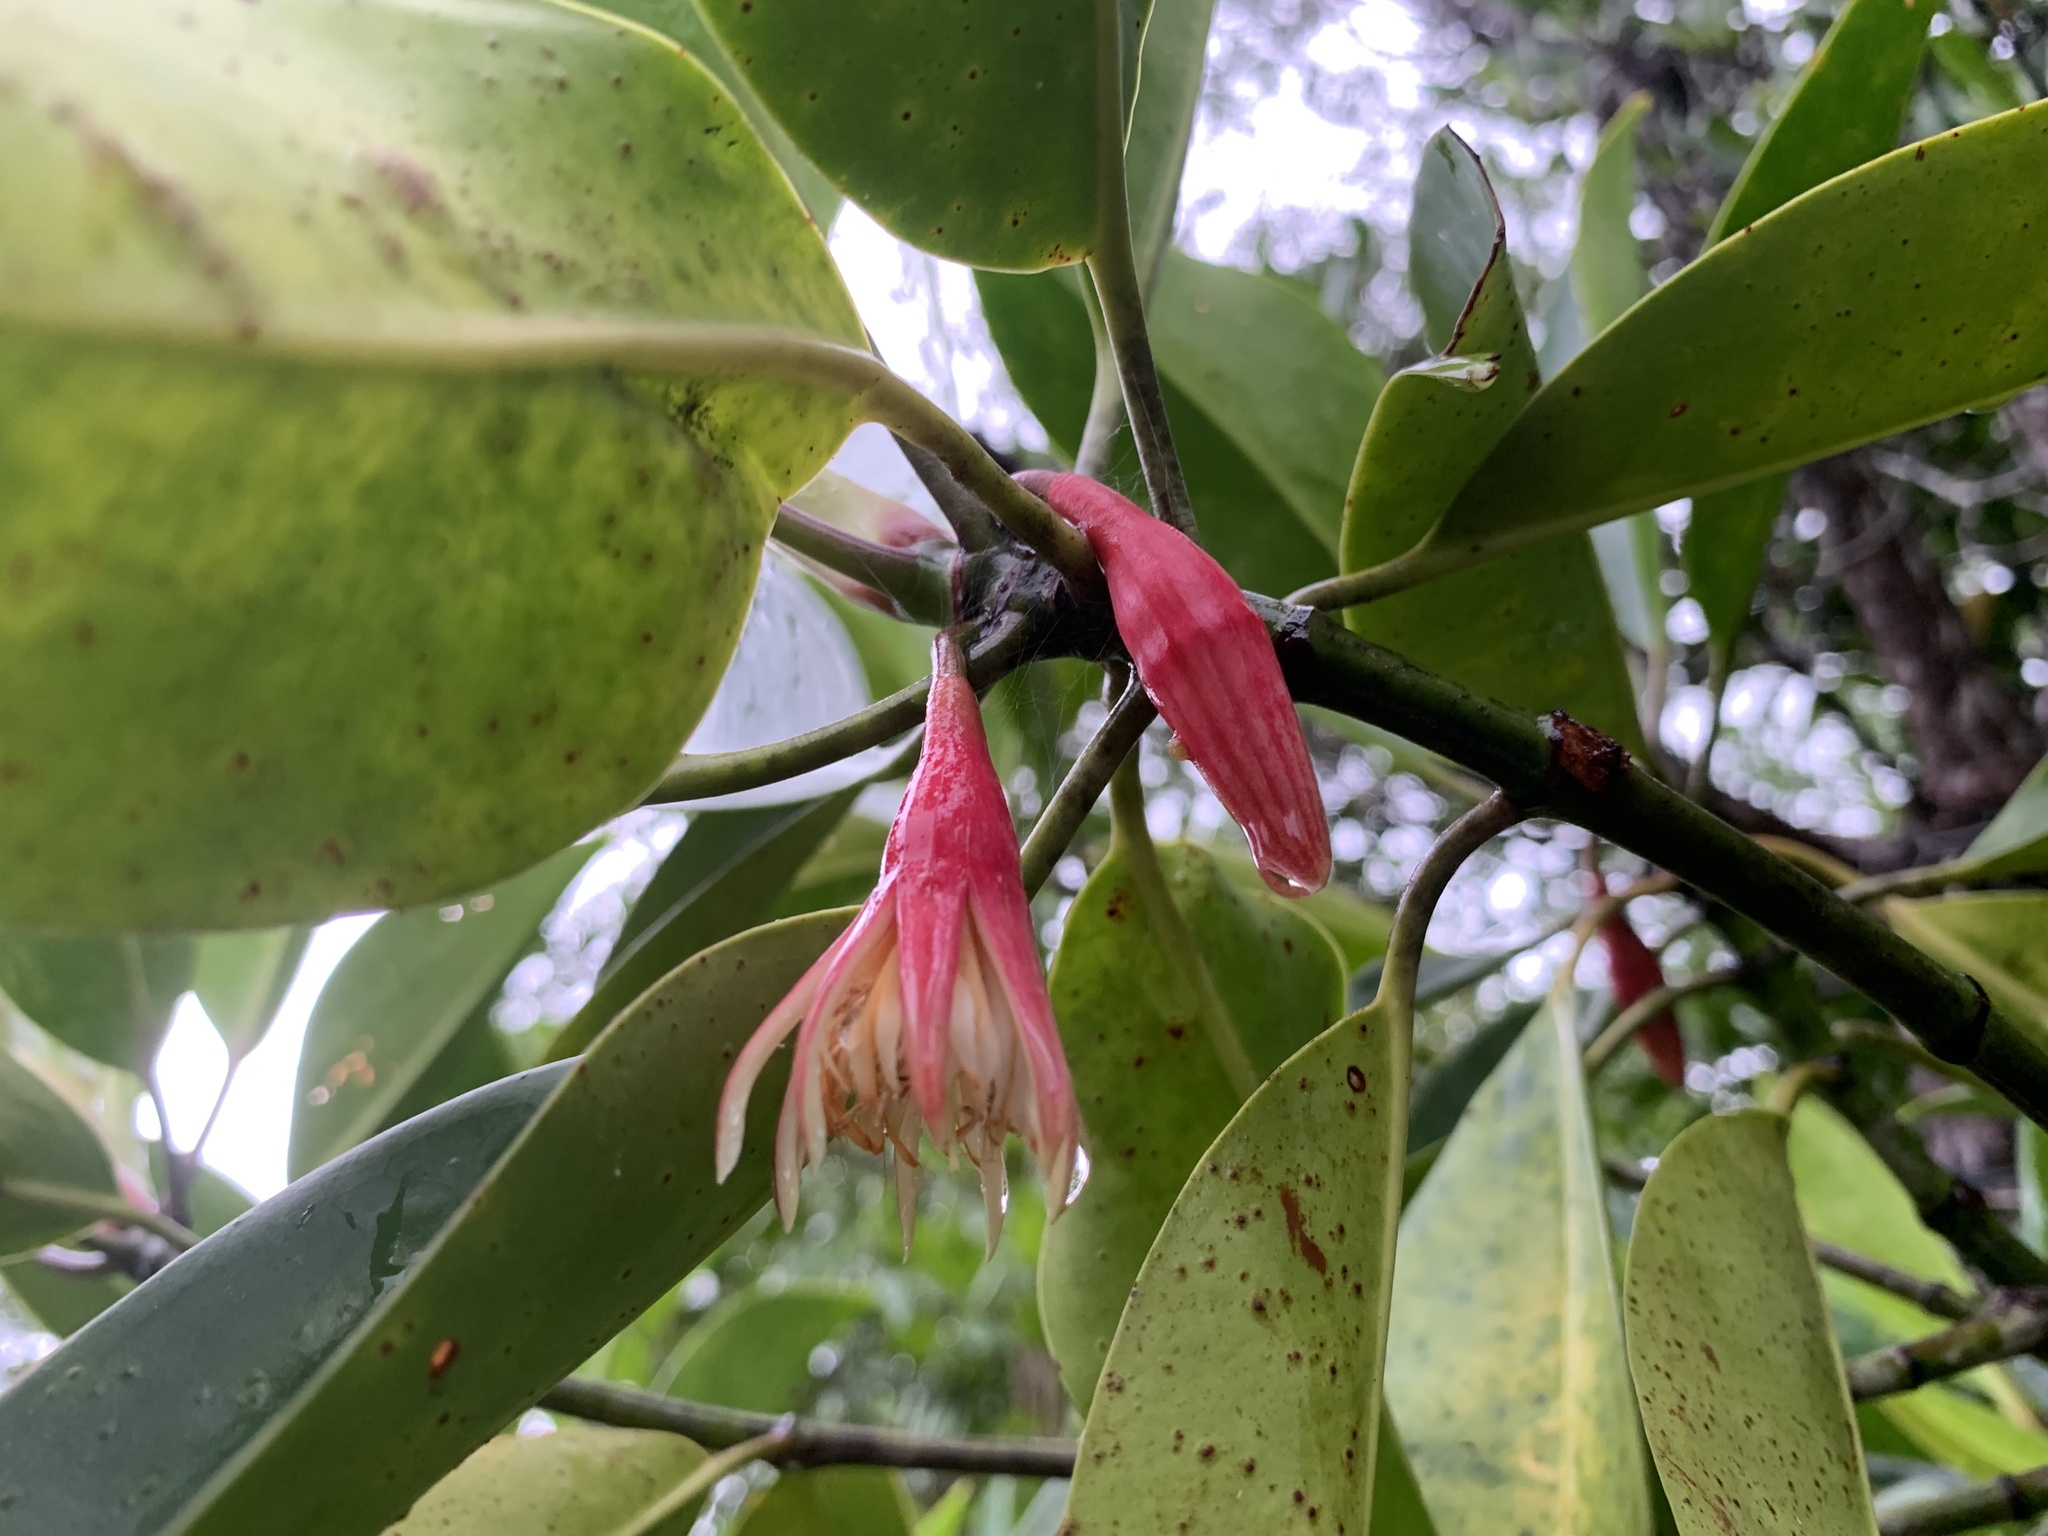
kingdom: Plantae
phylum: Tracheophyta
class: Magnoliopsida
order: Malpighiales
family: Rhizophoraceae
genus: Bruguiera
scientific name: Bruguiera gymnorhiza
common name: Oriental mangrove
